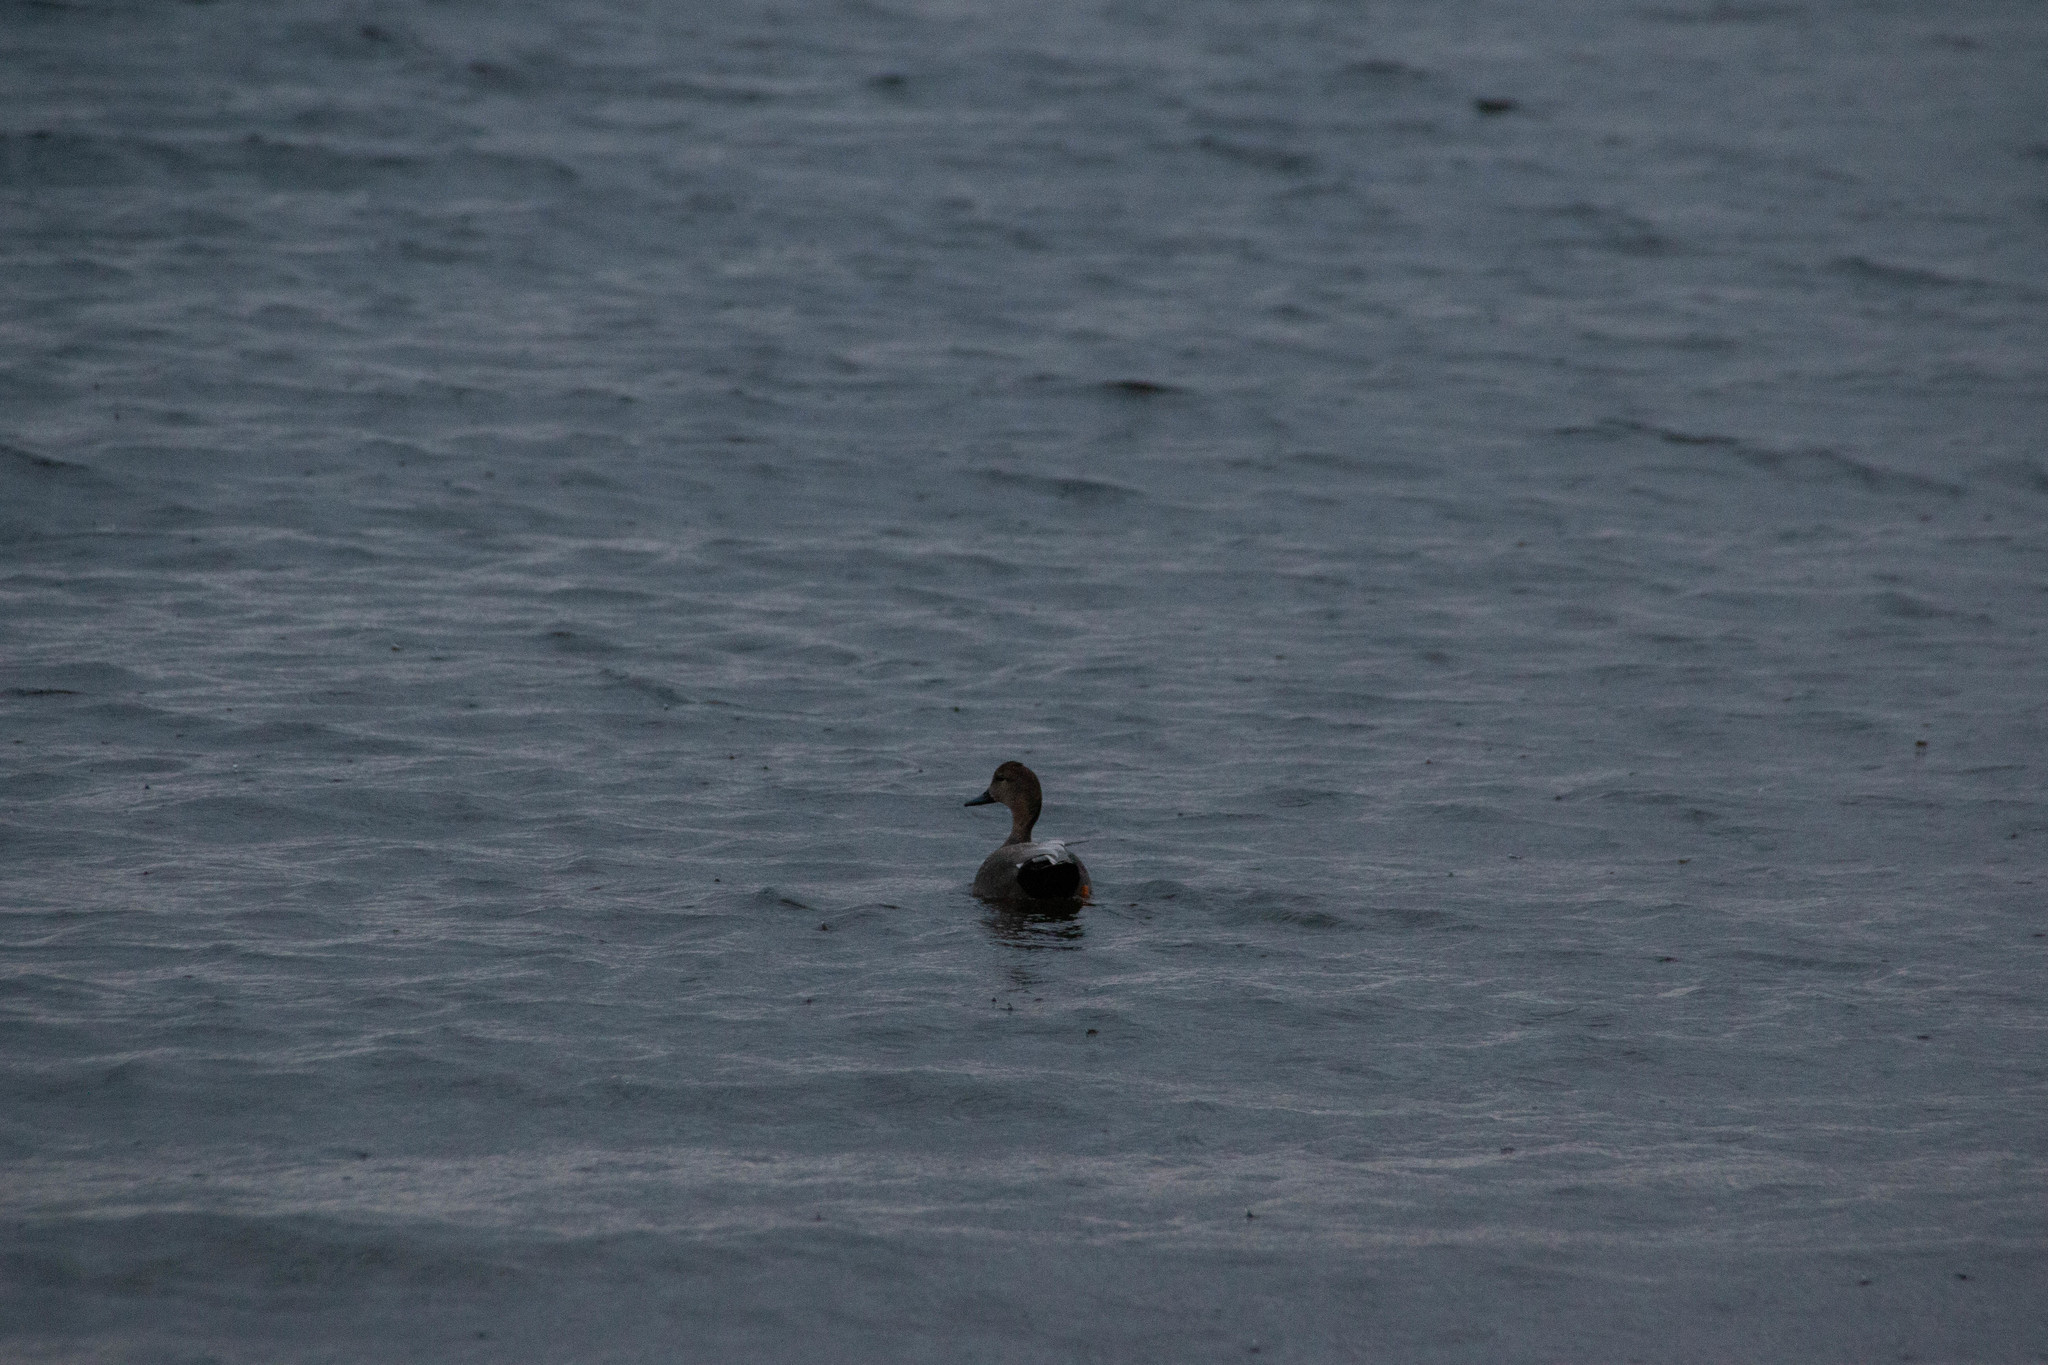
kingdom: Animalia
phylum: Chordata
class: Aves
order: Anseriformes
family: Anatidae
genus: Mareca
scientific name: Mareca strepera
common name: Gadwall
